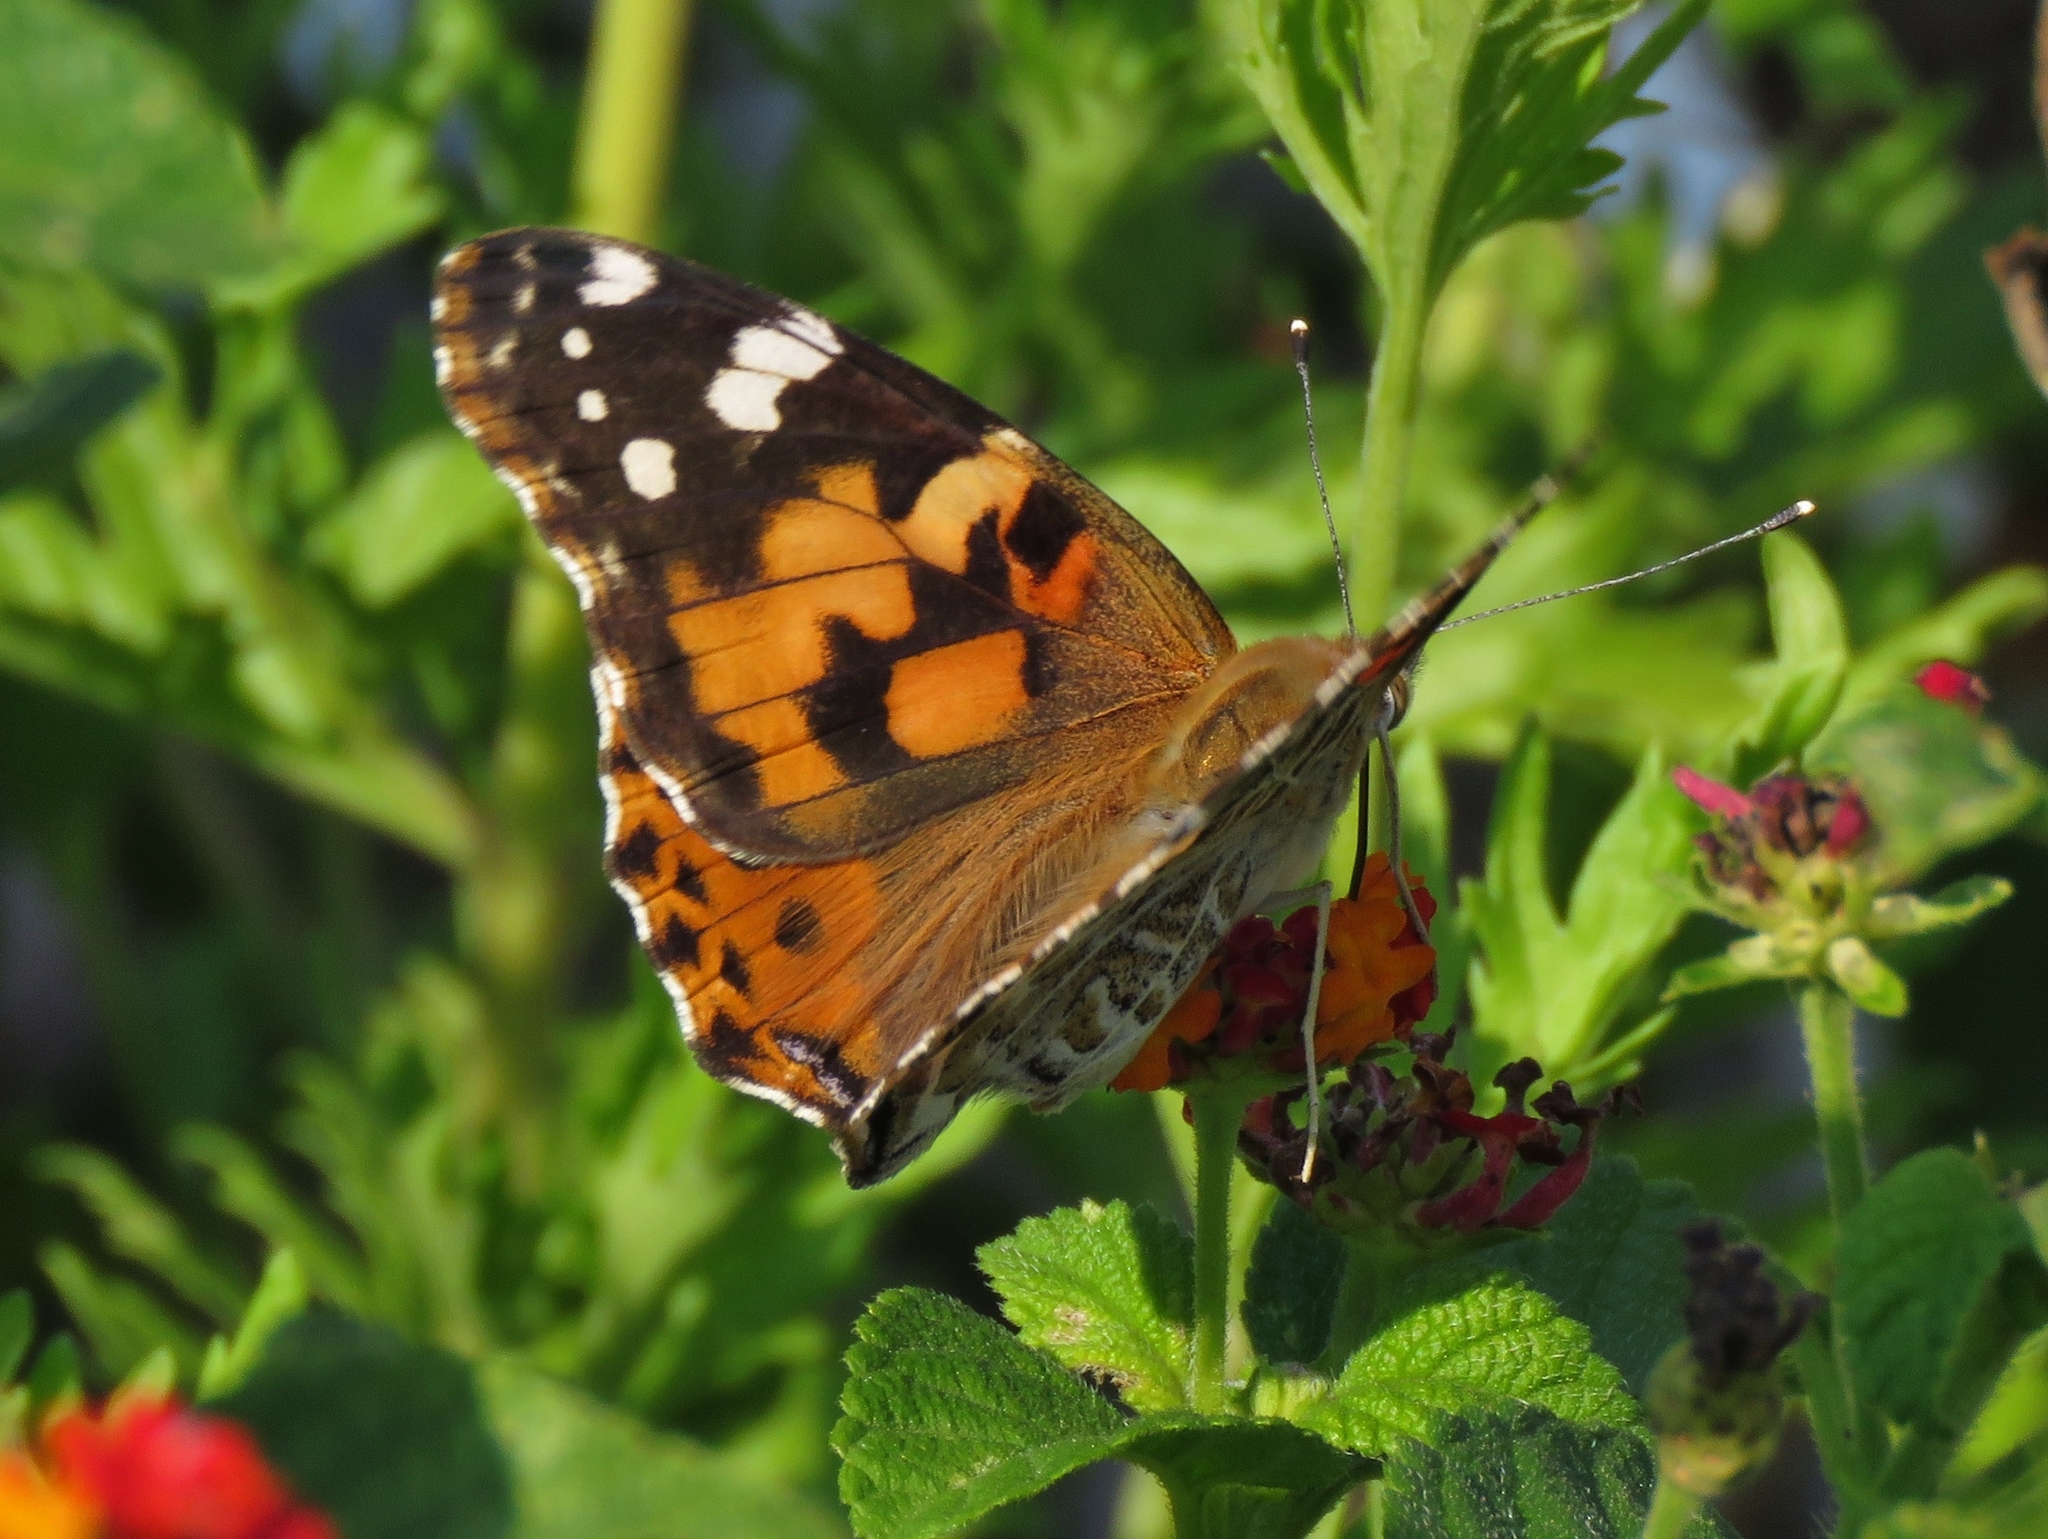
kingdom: Animalia
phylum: Arthropoda
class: Insecta
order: Lepidoptera
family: Nymphalidae
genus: Vanessa
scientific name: Vanessa cardui
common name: Painted lady
